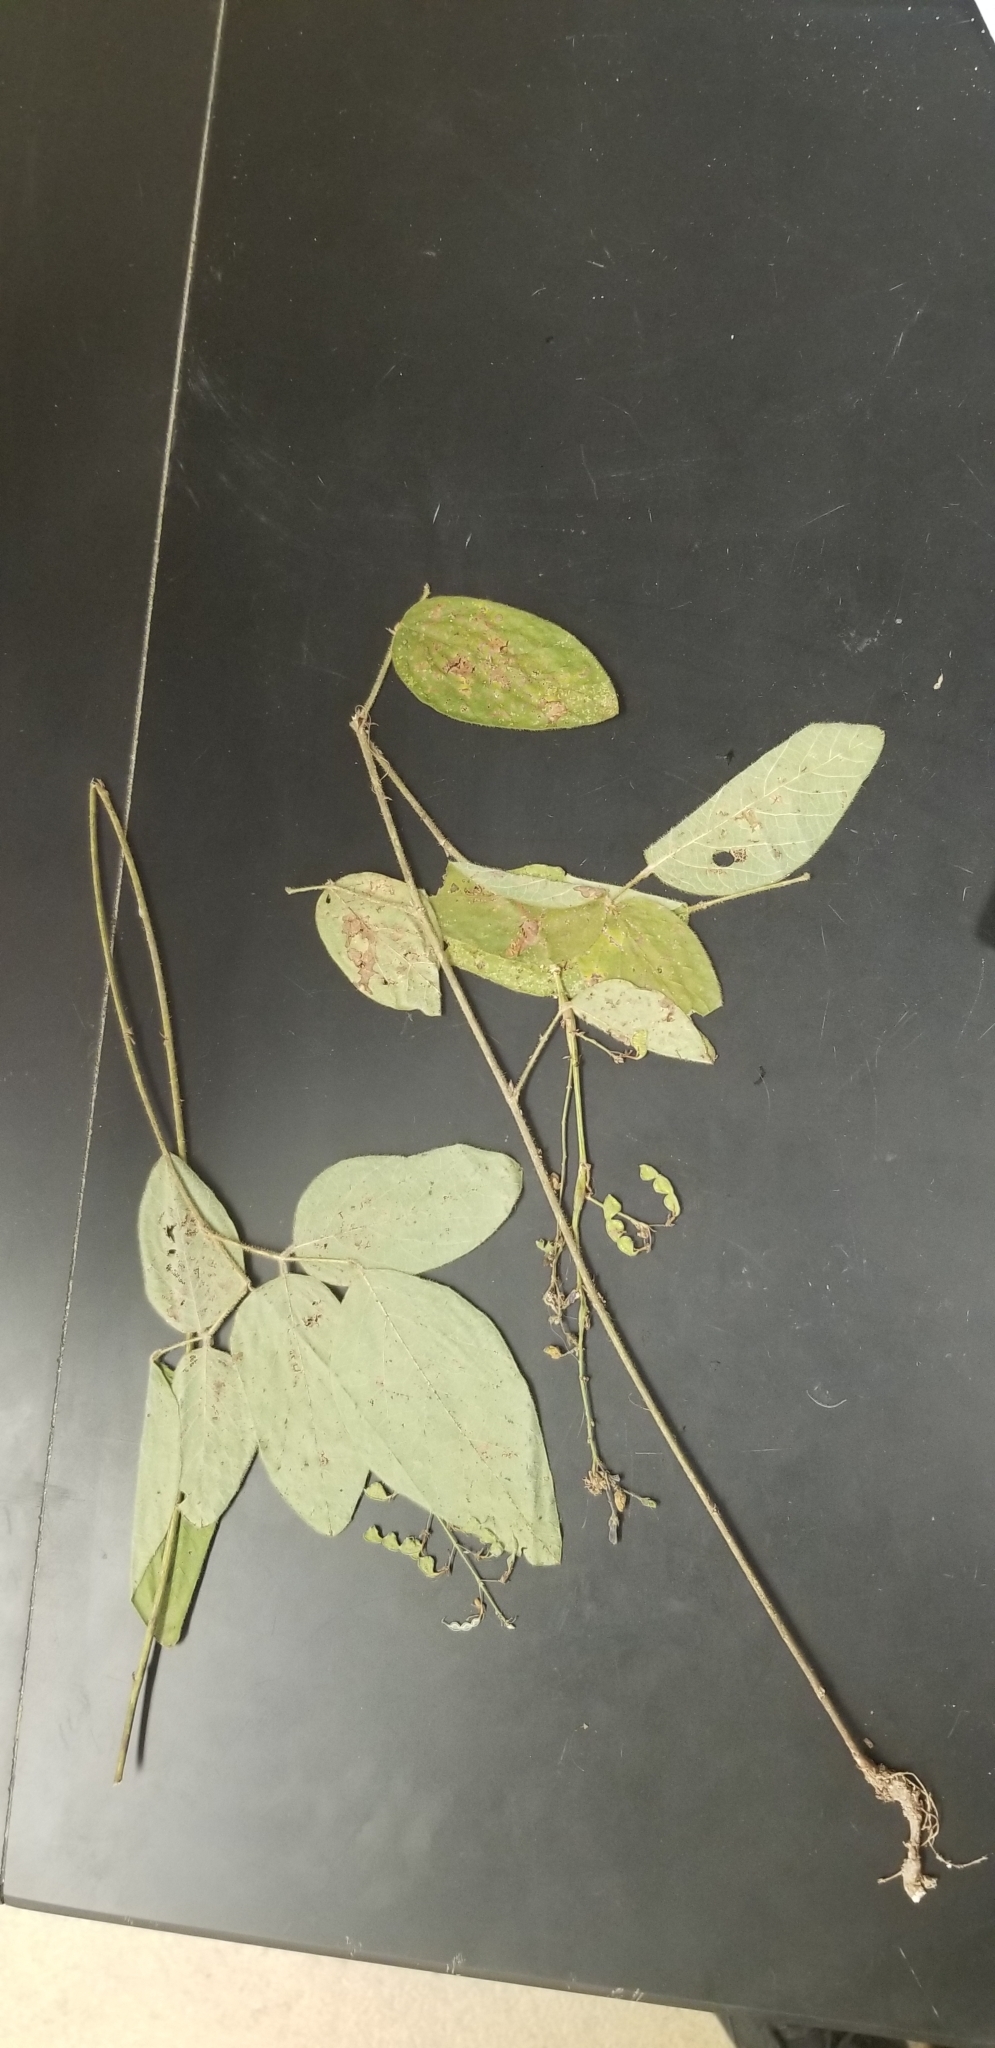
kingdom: Plantae
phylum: Tracheophyta
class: Magnoliopsida
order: Fabales
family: Fabaceae
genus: Desmodium
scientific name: Desmodium nuttallii
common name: Nuttall's tick trefoil
